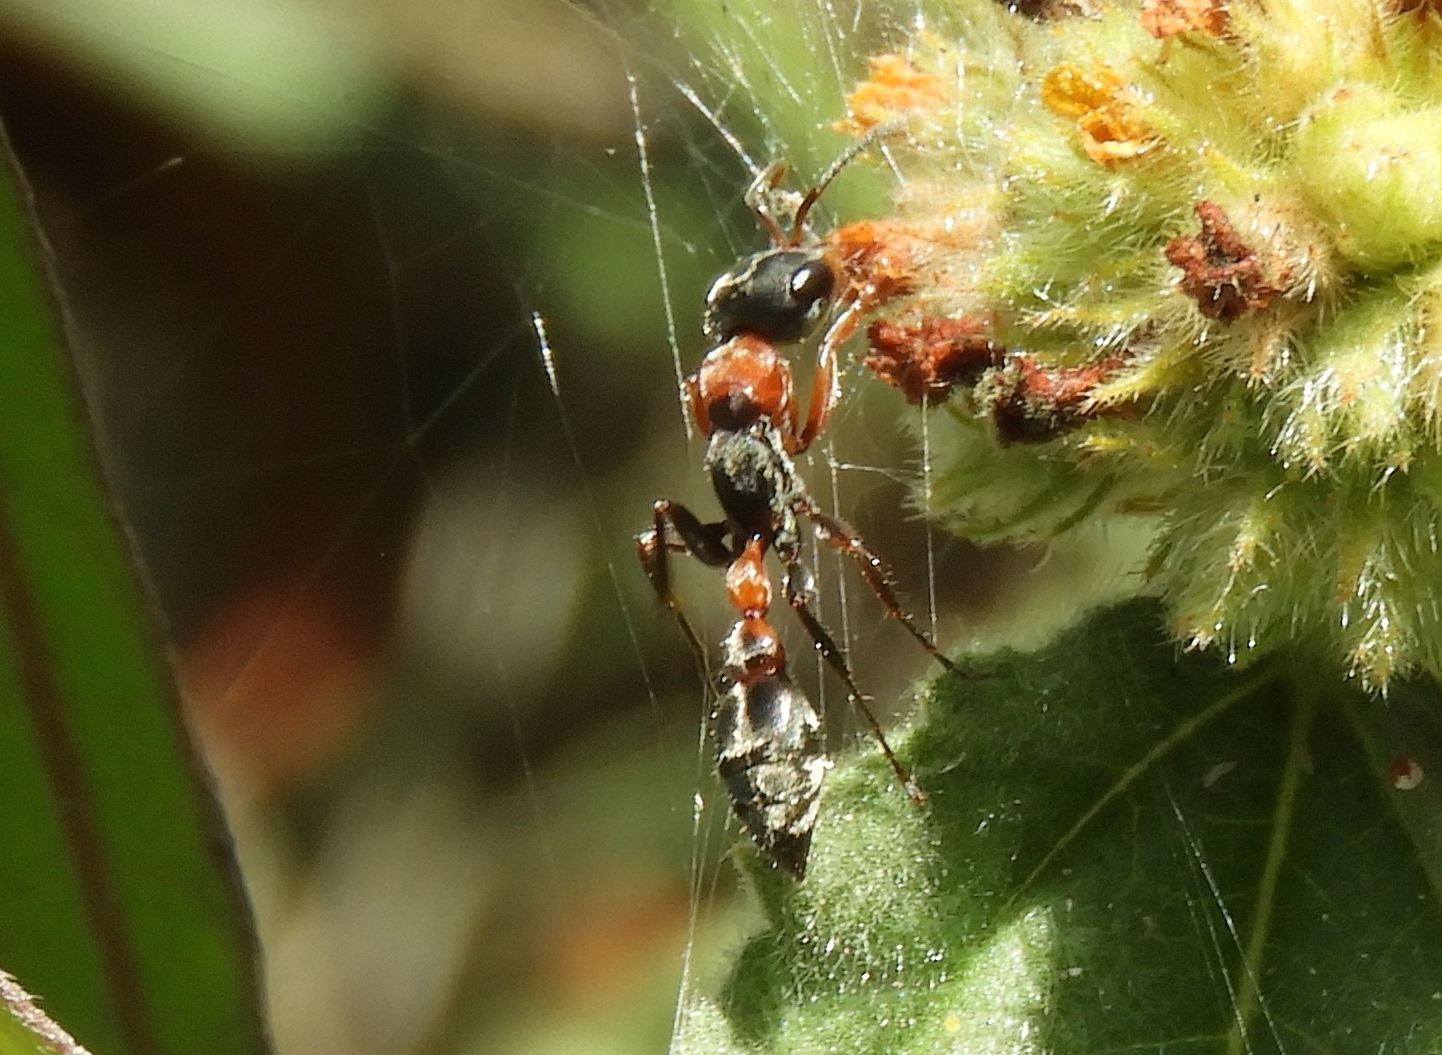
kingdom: Animalia
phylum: Arthropoda
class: Insecta
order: Hymenoptera
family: Formicidae
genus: Pseudomyrmex
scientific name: Pseudomyrmex gracilis
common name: Graceful twig ant
